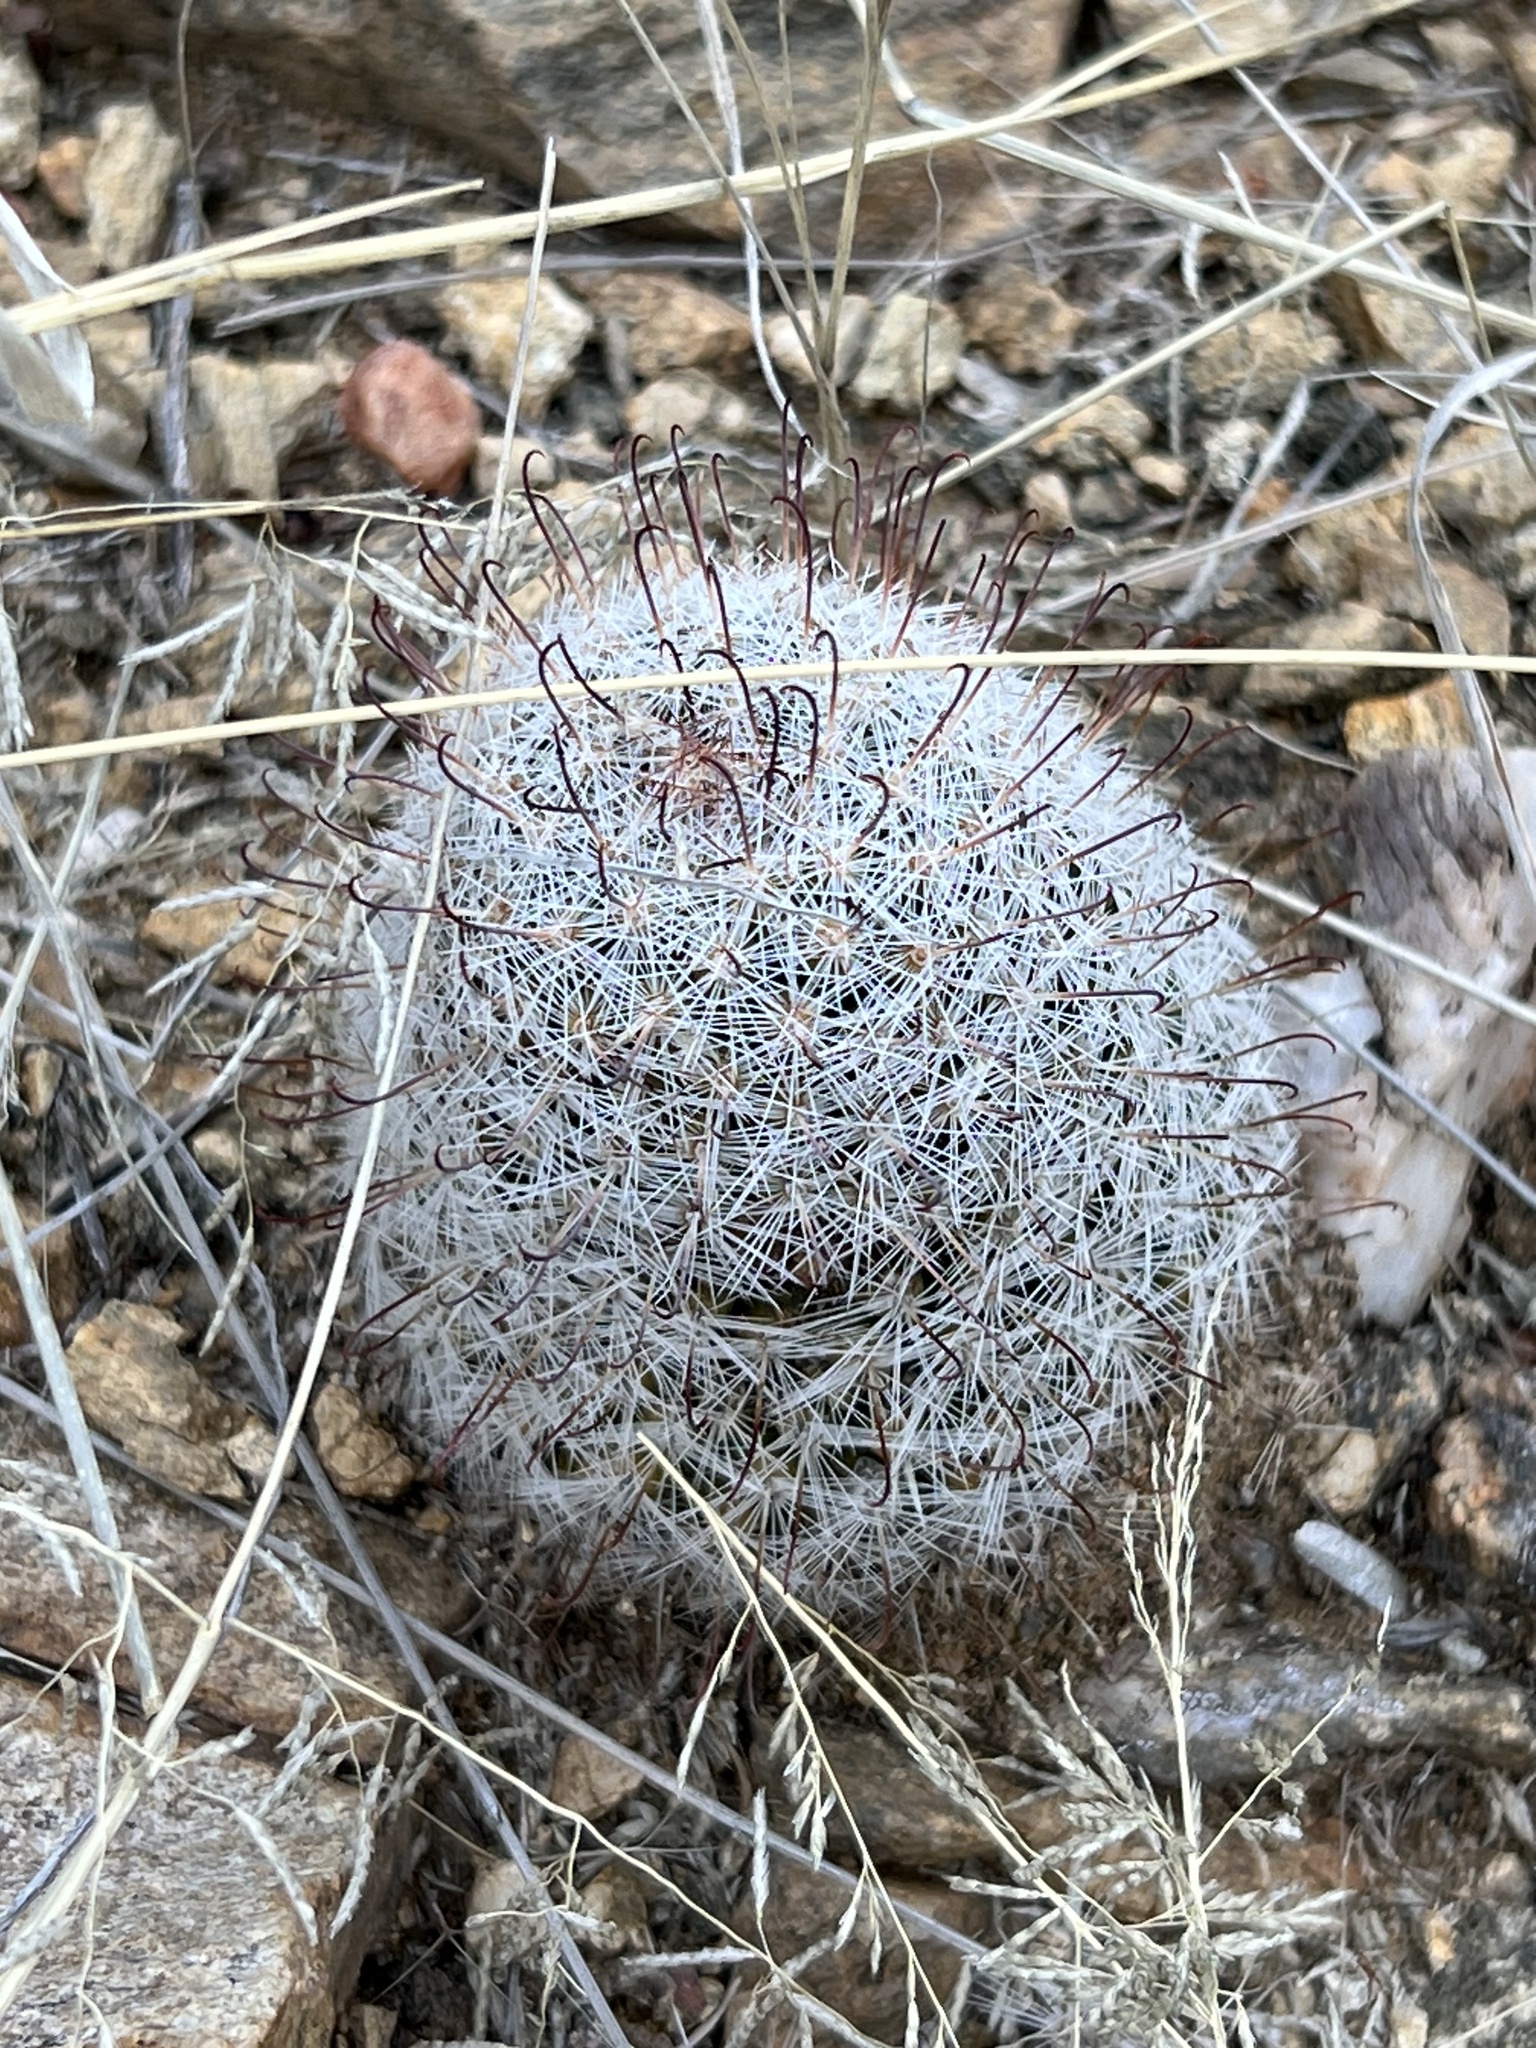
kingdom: Plantae
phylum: Tracheophyta
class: Magnoliopsida
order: Caryophyllales
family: Cactaceae
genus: Cochemiea
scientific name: Cochemiea grahamii
